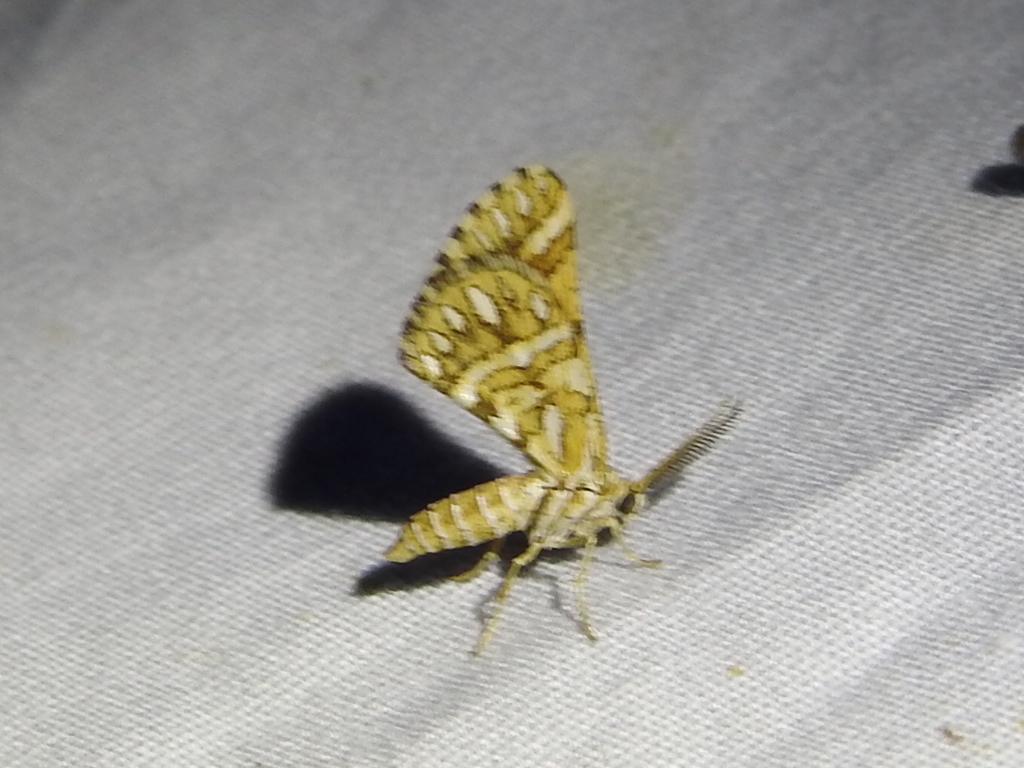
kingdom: Animalia
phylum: Arthropoda
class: Insecta
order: Lepidoptera
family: Geometridae
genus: Narraga
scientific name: Narraga fimetaria
